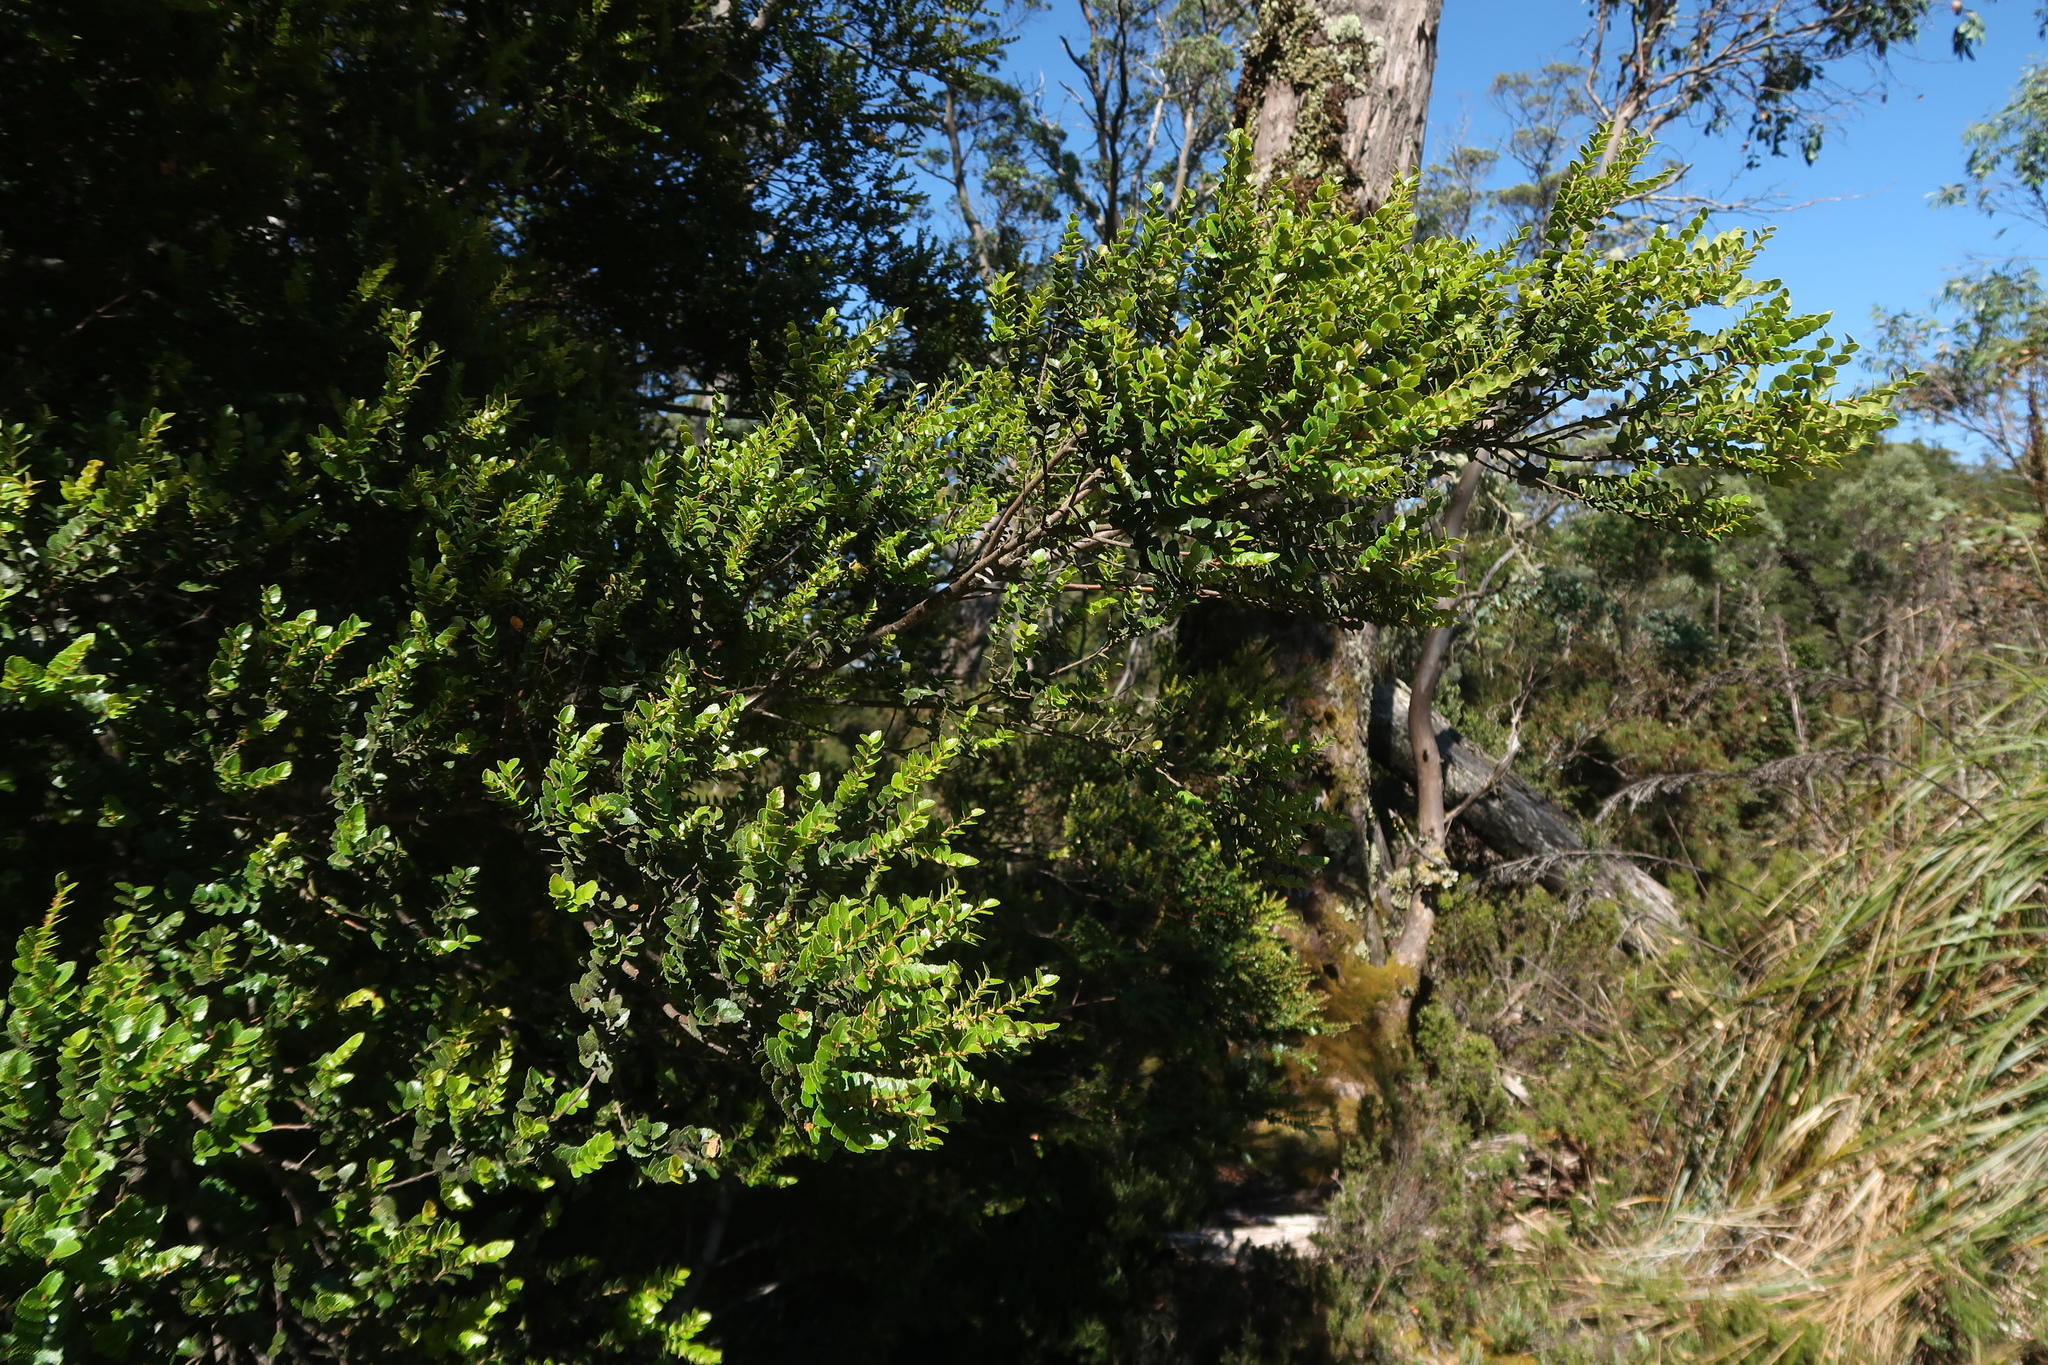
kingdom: Plantae
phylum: Tracheophyta
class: Magnoliopsida
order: Fagales
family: Nothofagaceae
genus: Nothofagus
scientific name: Nothofagus cunninghamii
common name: Myrtle beech
